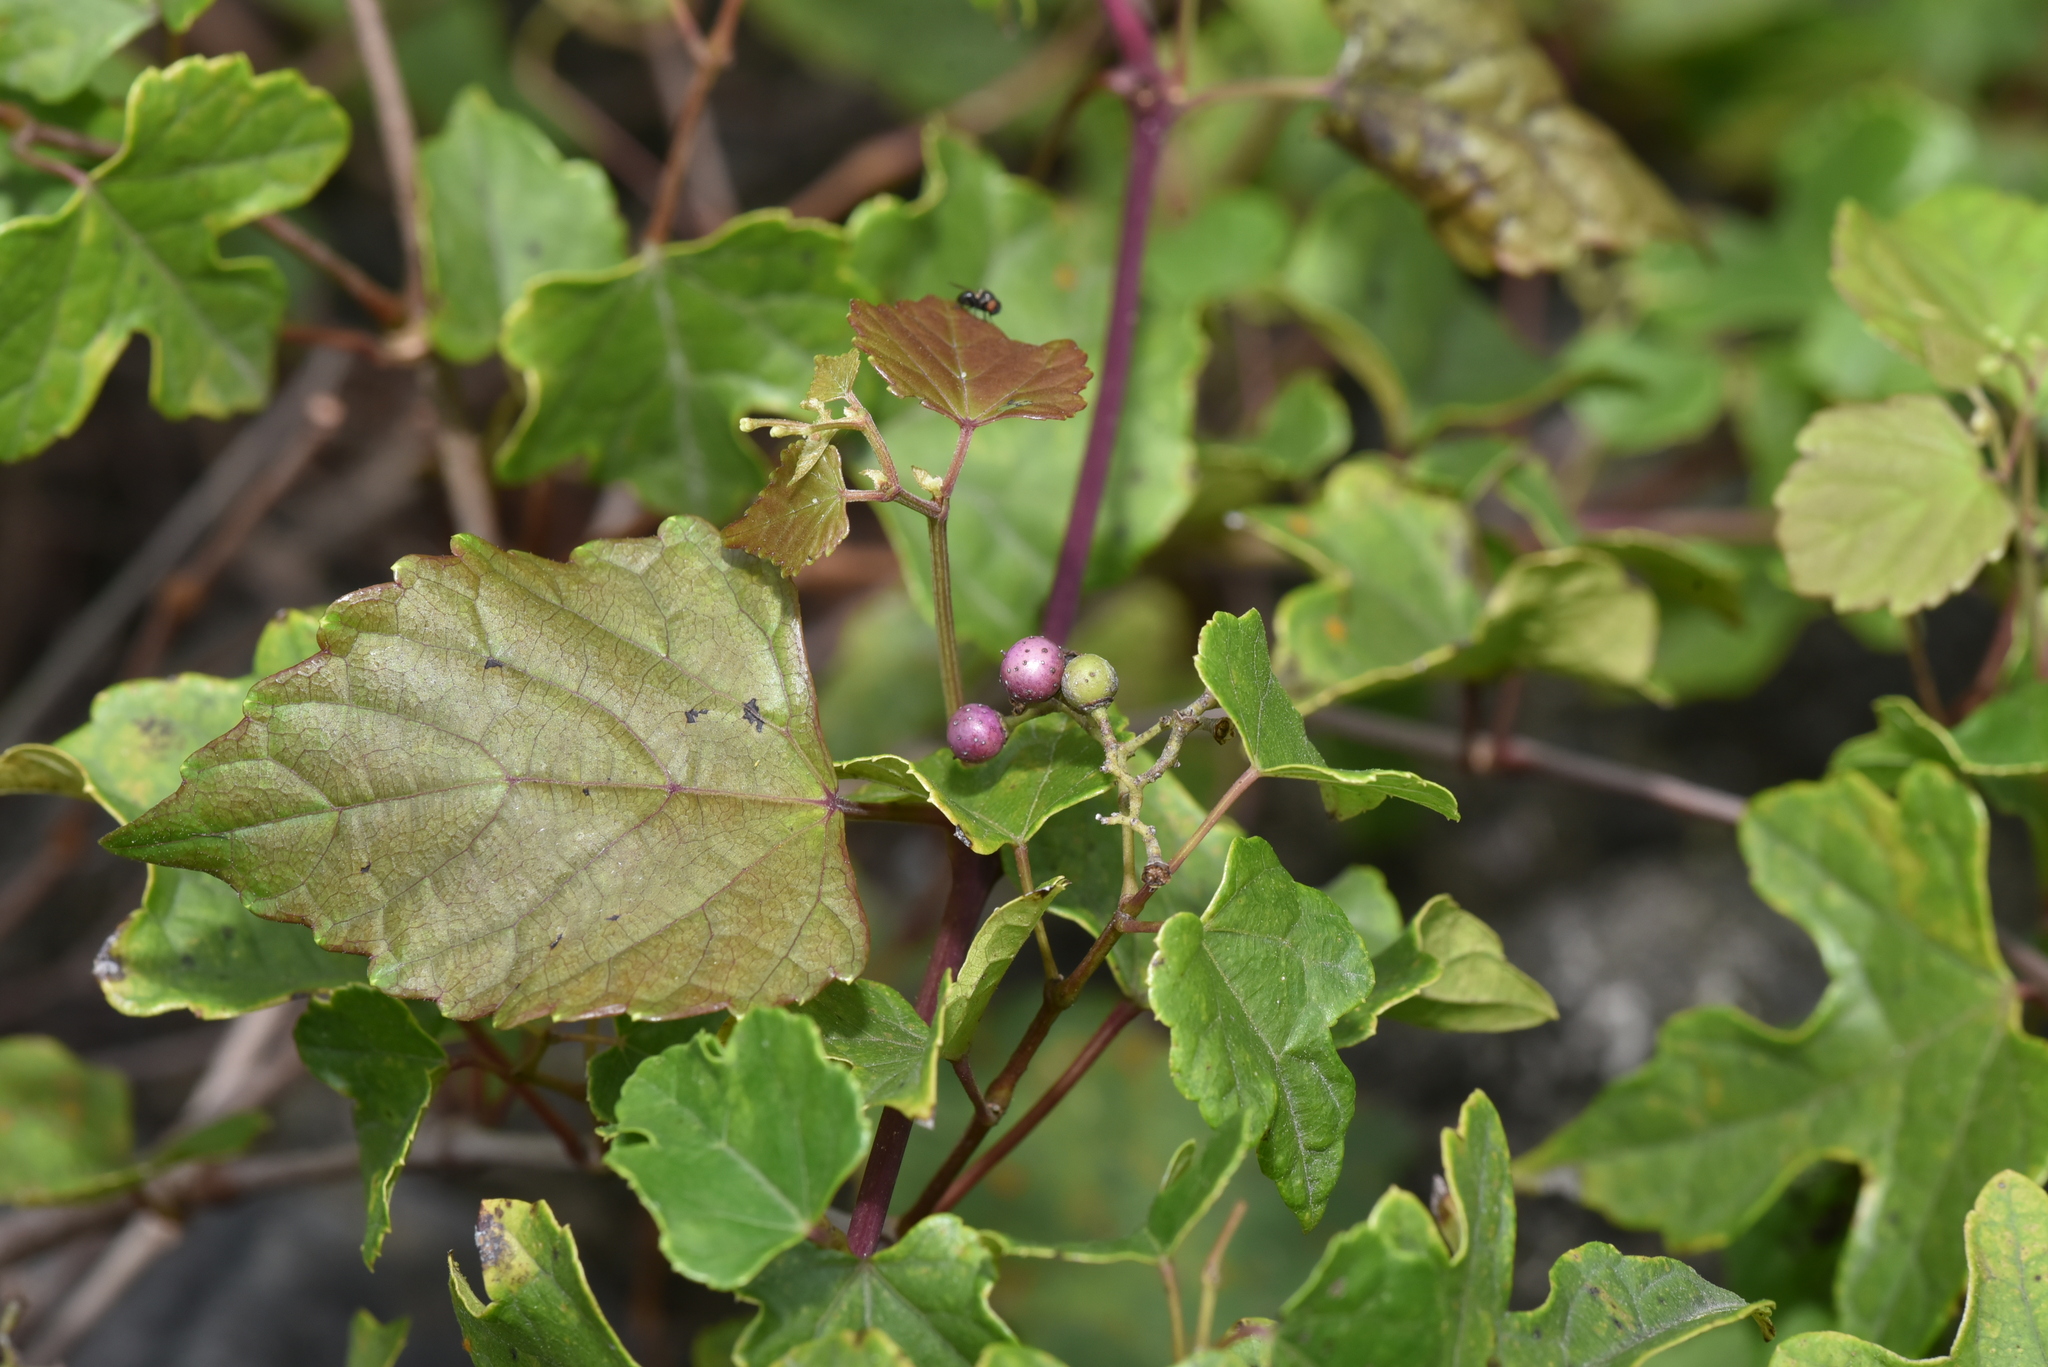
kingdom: Plantae
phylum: Tracheophyta
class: Magnoliopsida
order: Vitales
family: Vitaceae
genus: Ampelopsis
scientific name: Ampelopsis glandulosa
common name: Amur peppervine
